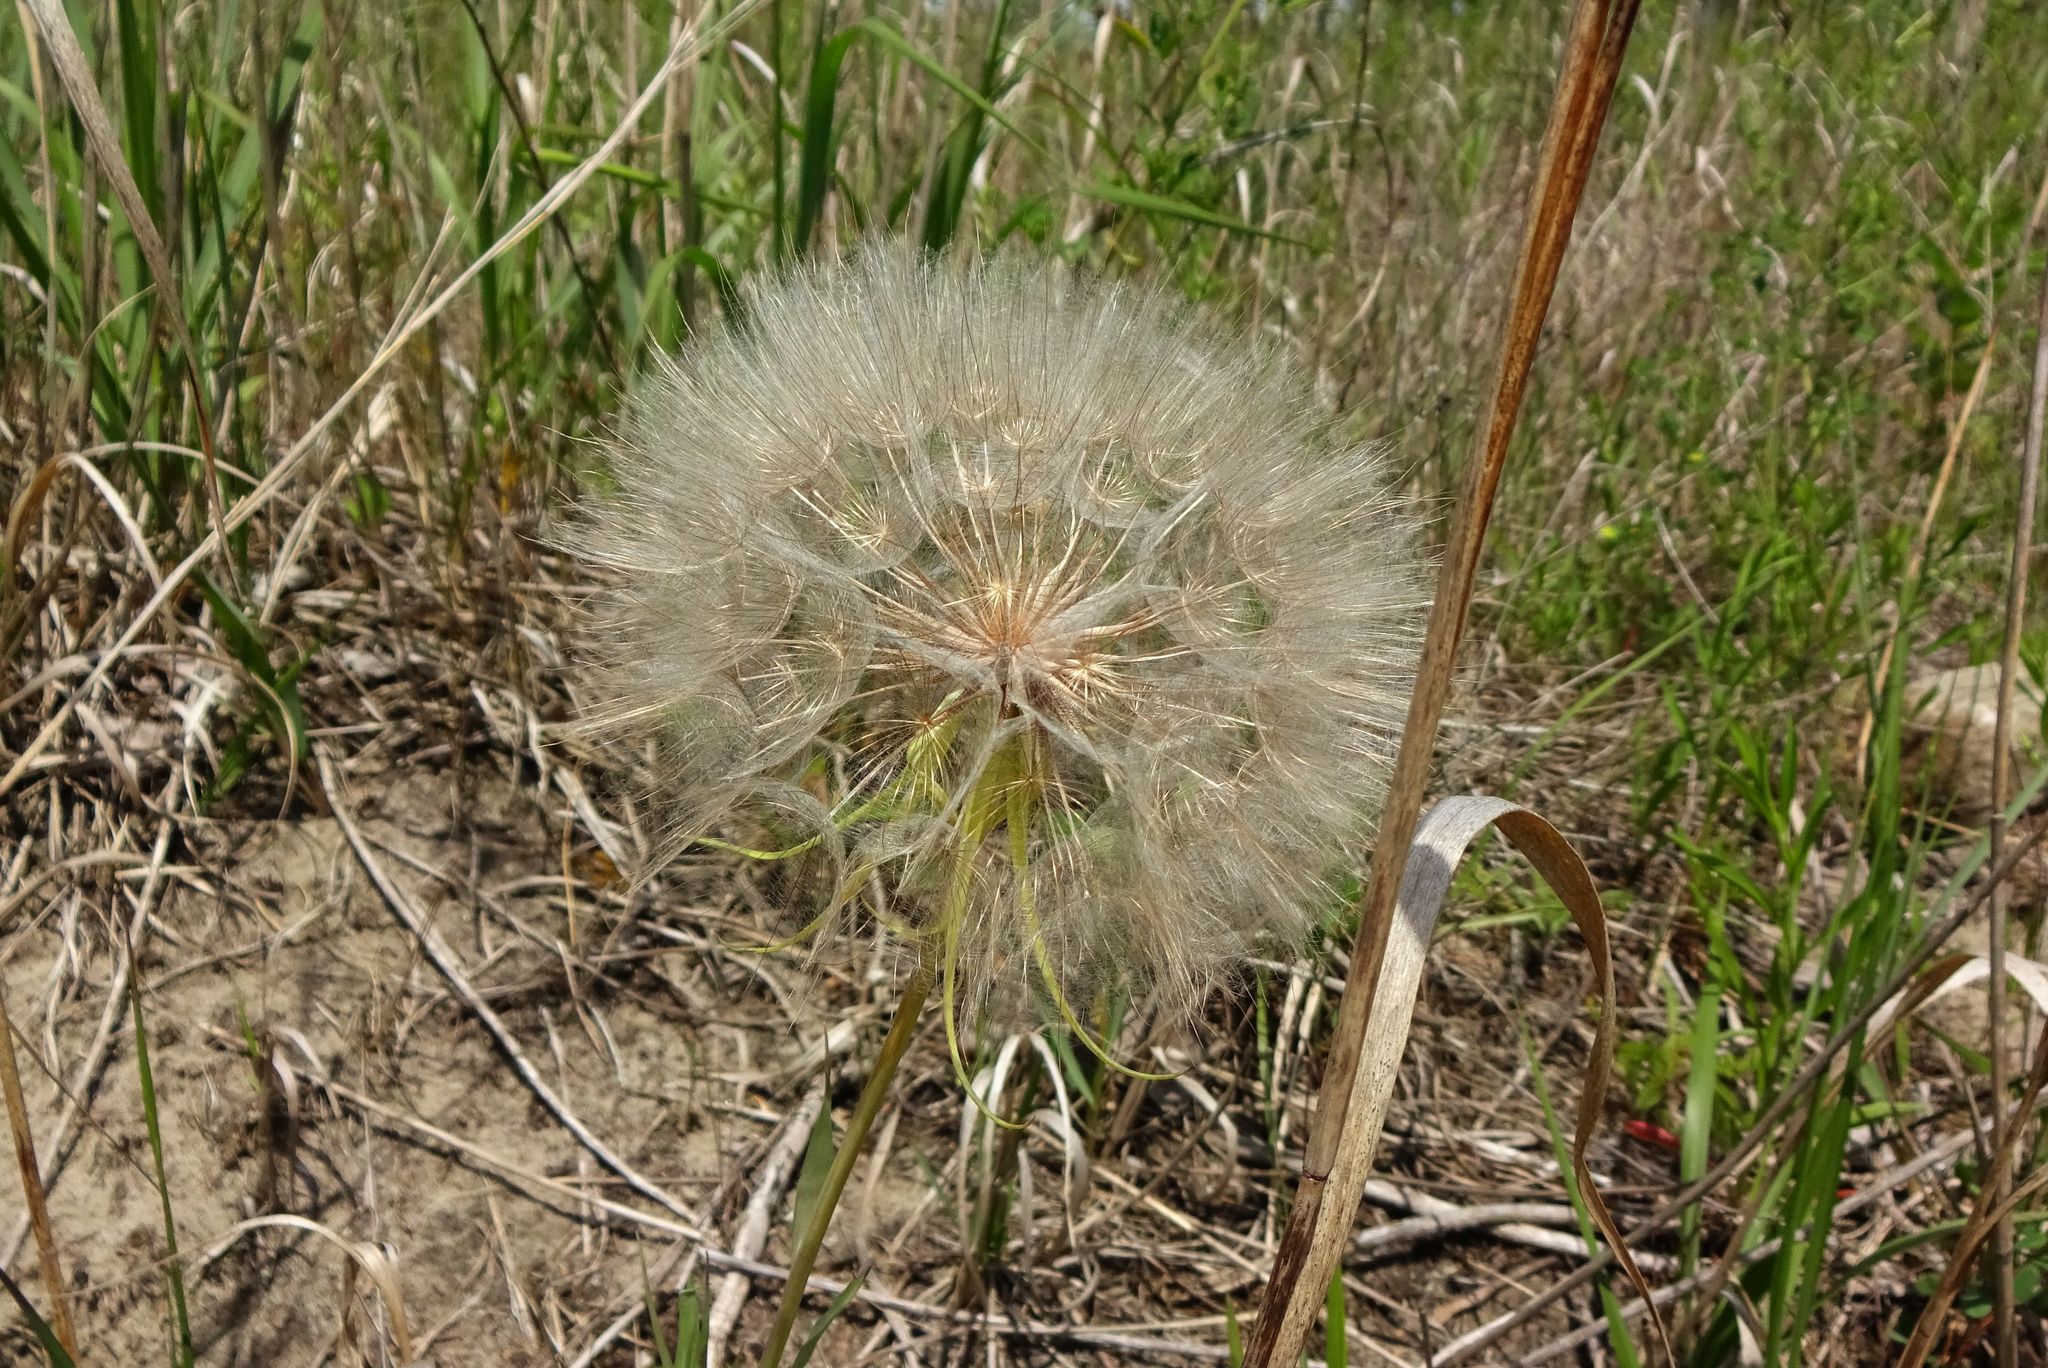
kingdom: Plantae
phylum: Tracheophyta
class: Magnoliopsida
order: Asterales
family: Asteraceae
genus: Tragopogon
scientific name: Tragopogon dubius
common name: Yellow salsify
